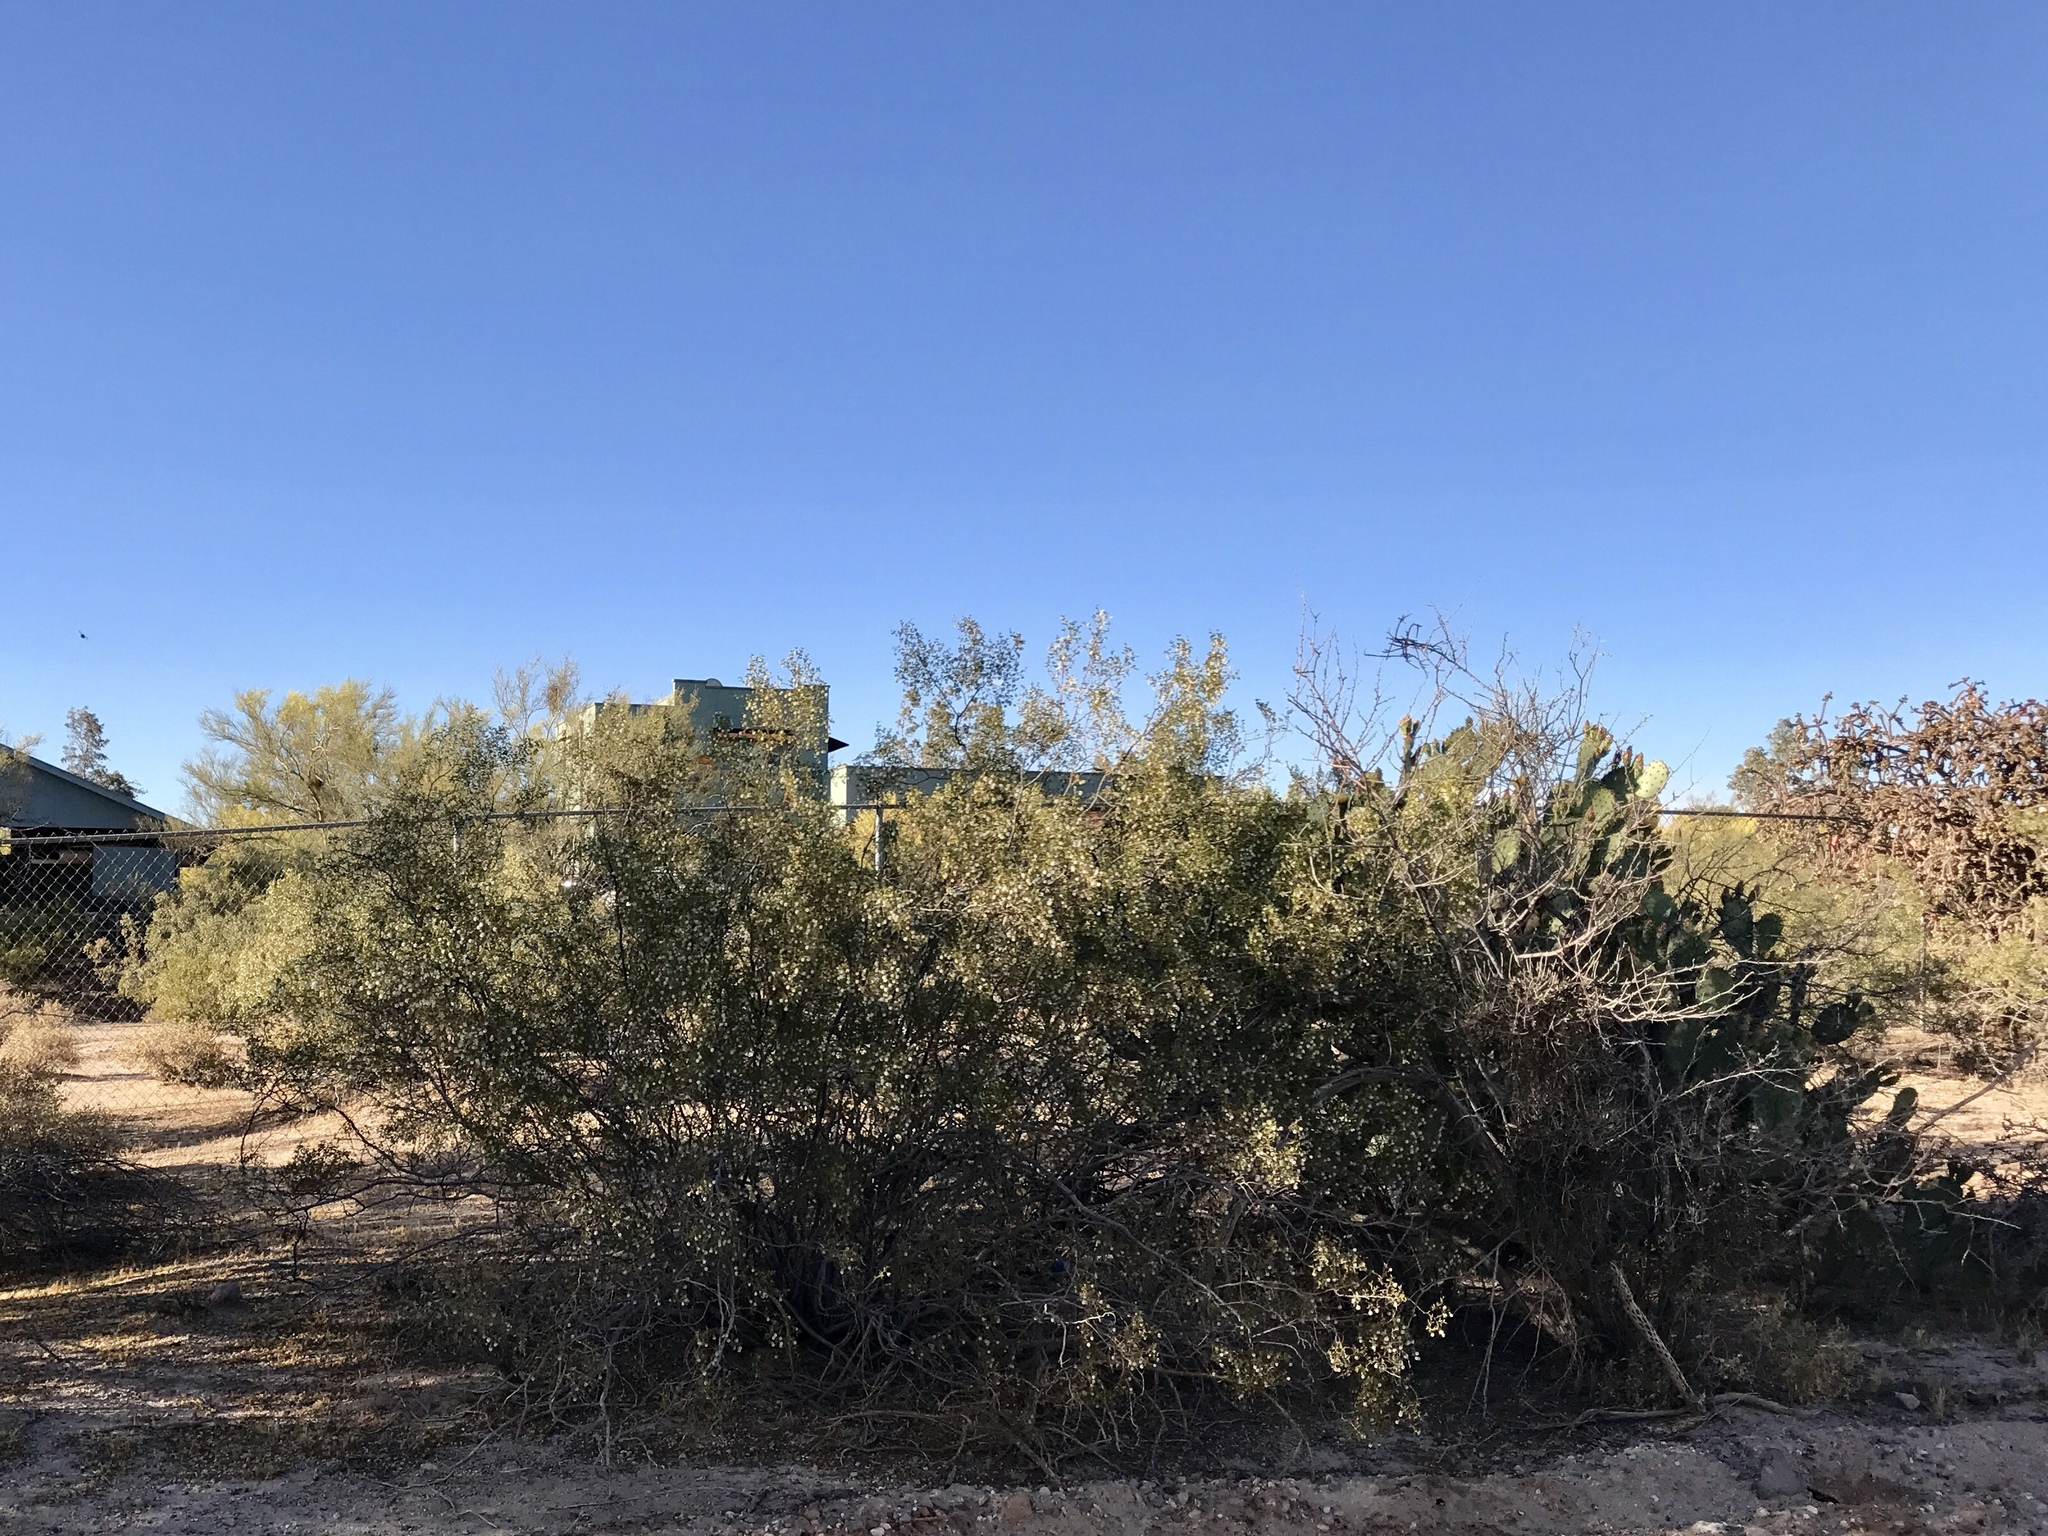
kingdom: Plantae
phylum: Tracheophyta
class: Magnoliopsida
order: Zygophyllales
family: Zygophyllaceae
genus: Larrea
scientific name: Larrea tridentata
